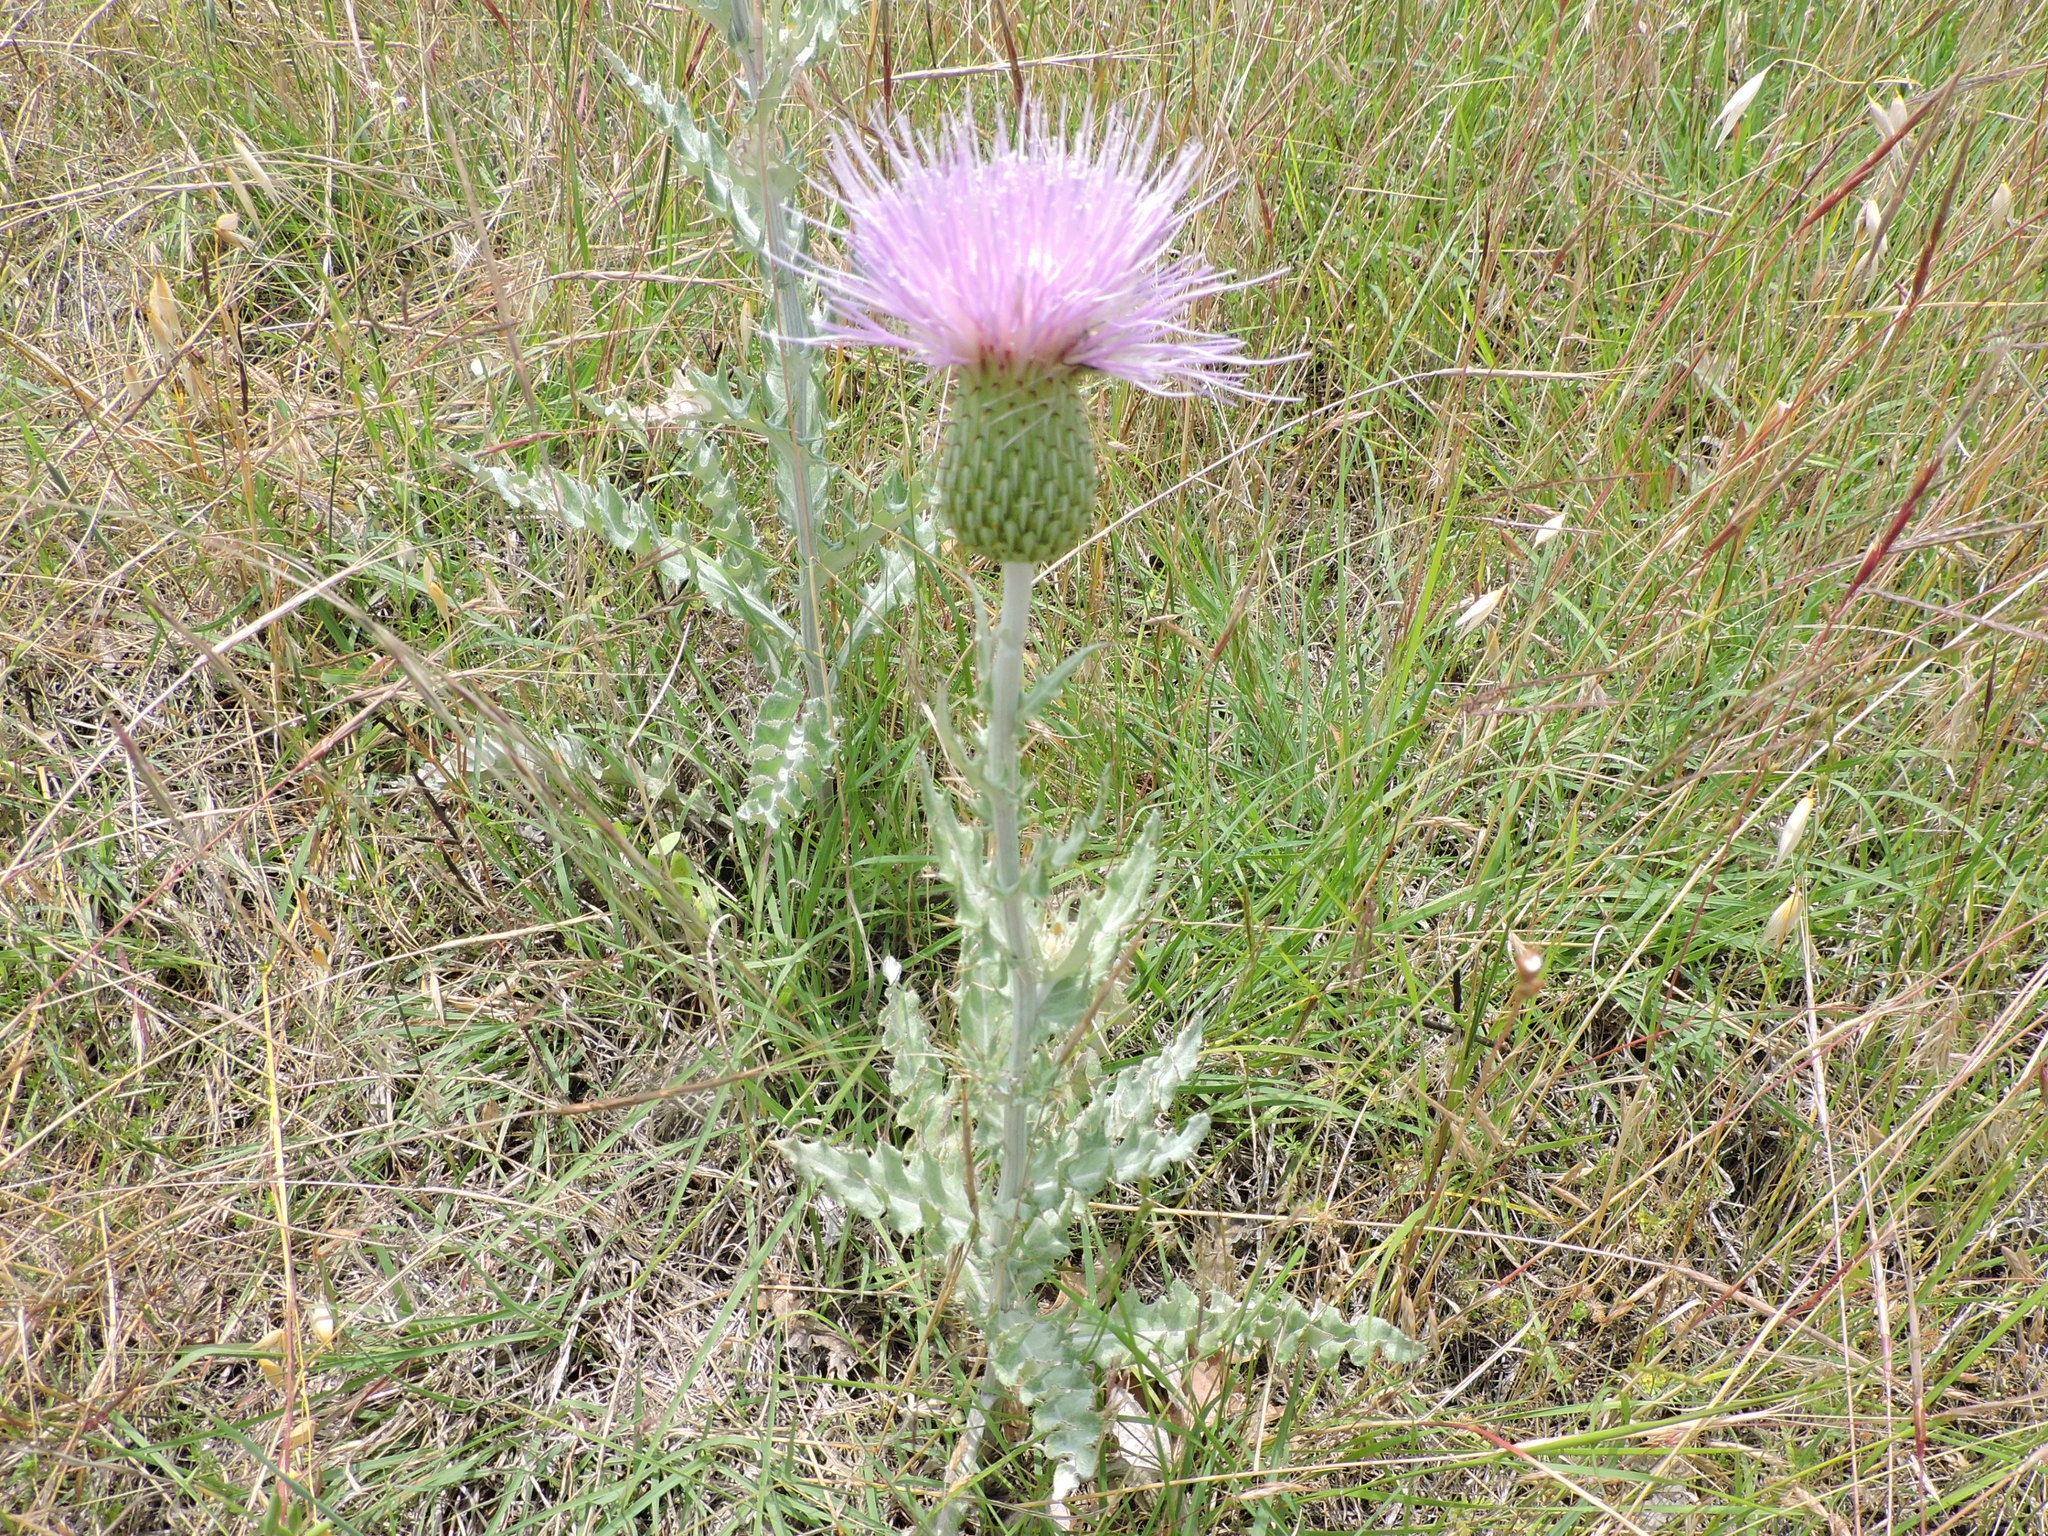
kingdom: Plantae
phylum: Tracheophyta
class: Magnoliopsida
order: Asterales
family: Asteraceae
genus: Cirsium
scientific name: Cirsium undulatum
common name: Pasture thistle
